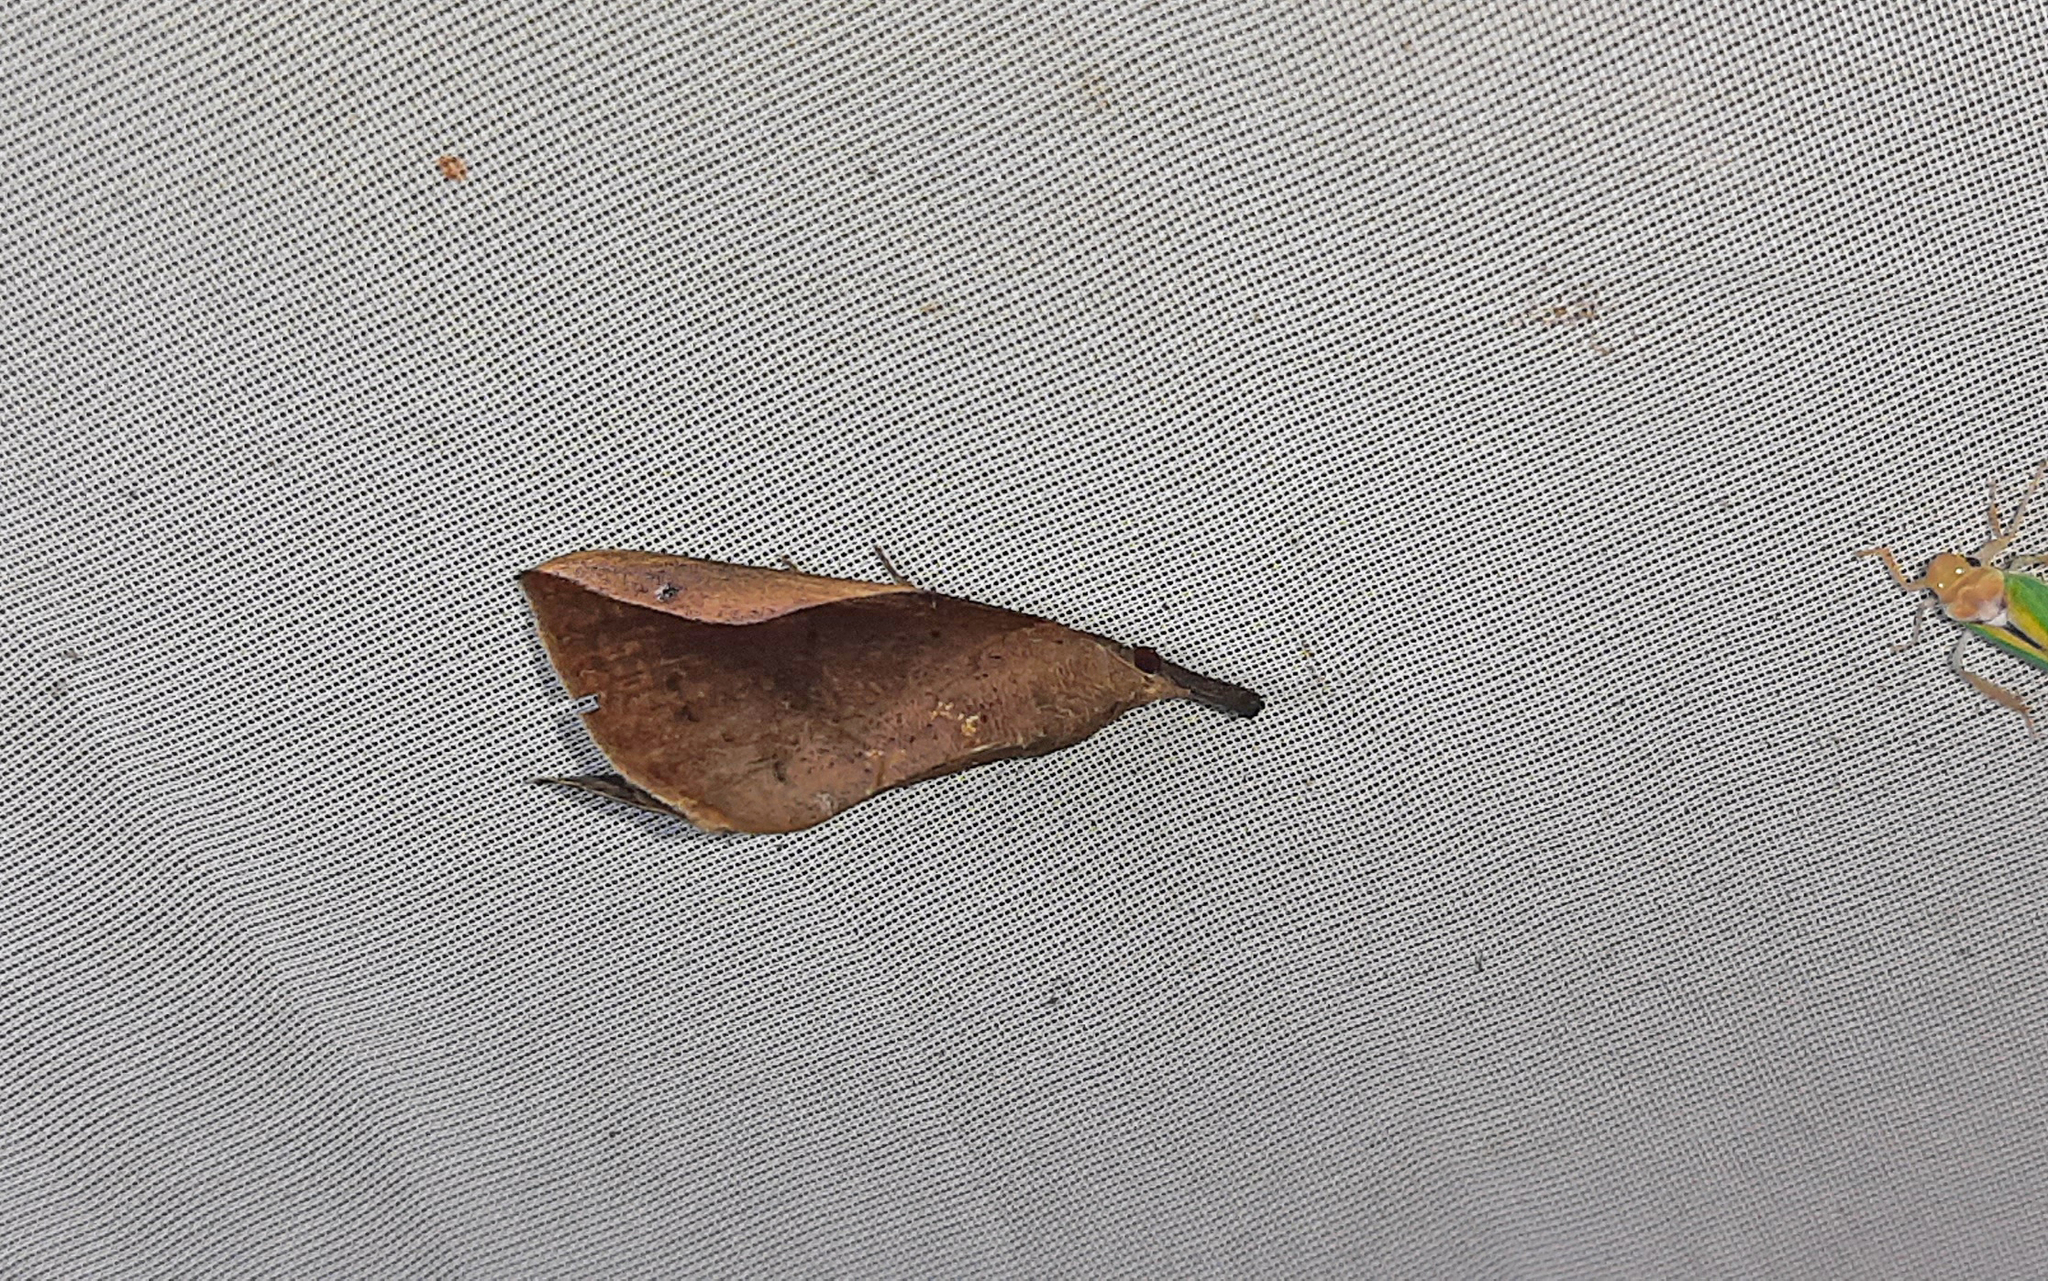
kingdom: Animalia
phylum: Arthropoda
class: Insecta
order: Lepidoptera
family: Erebidae
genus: Hypena
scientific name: Hypena perialis
